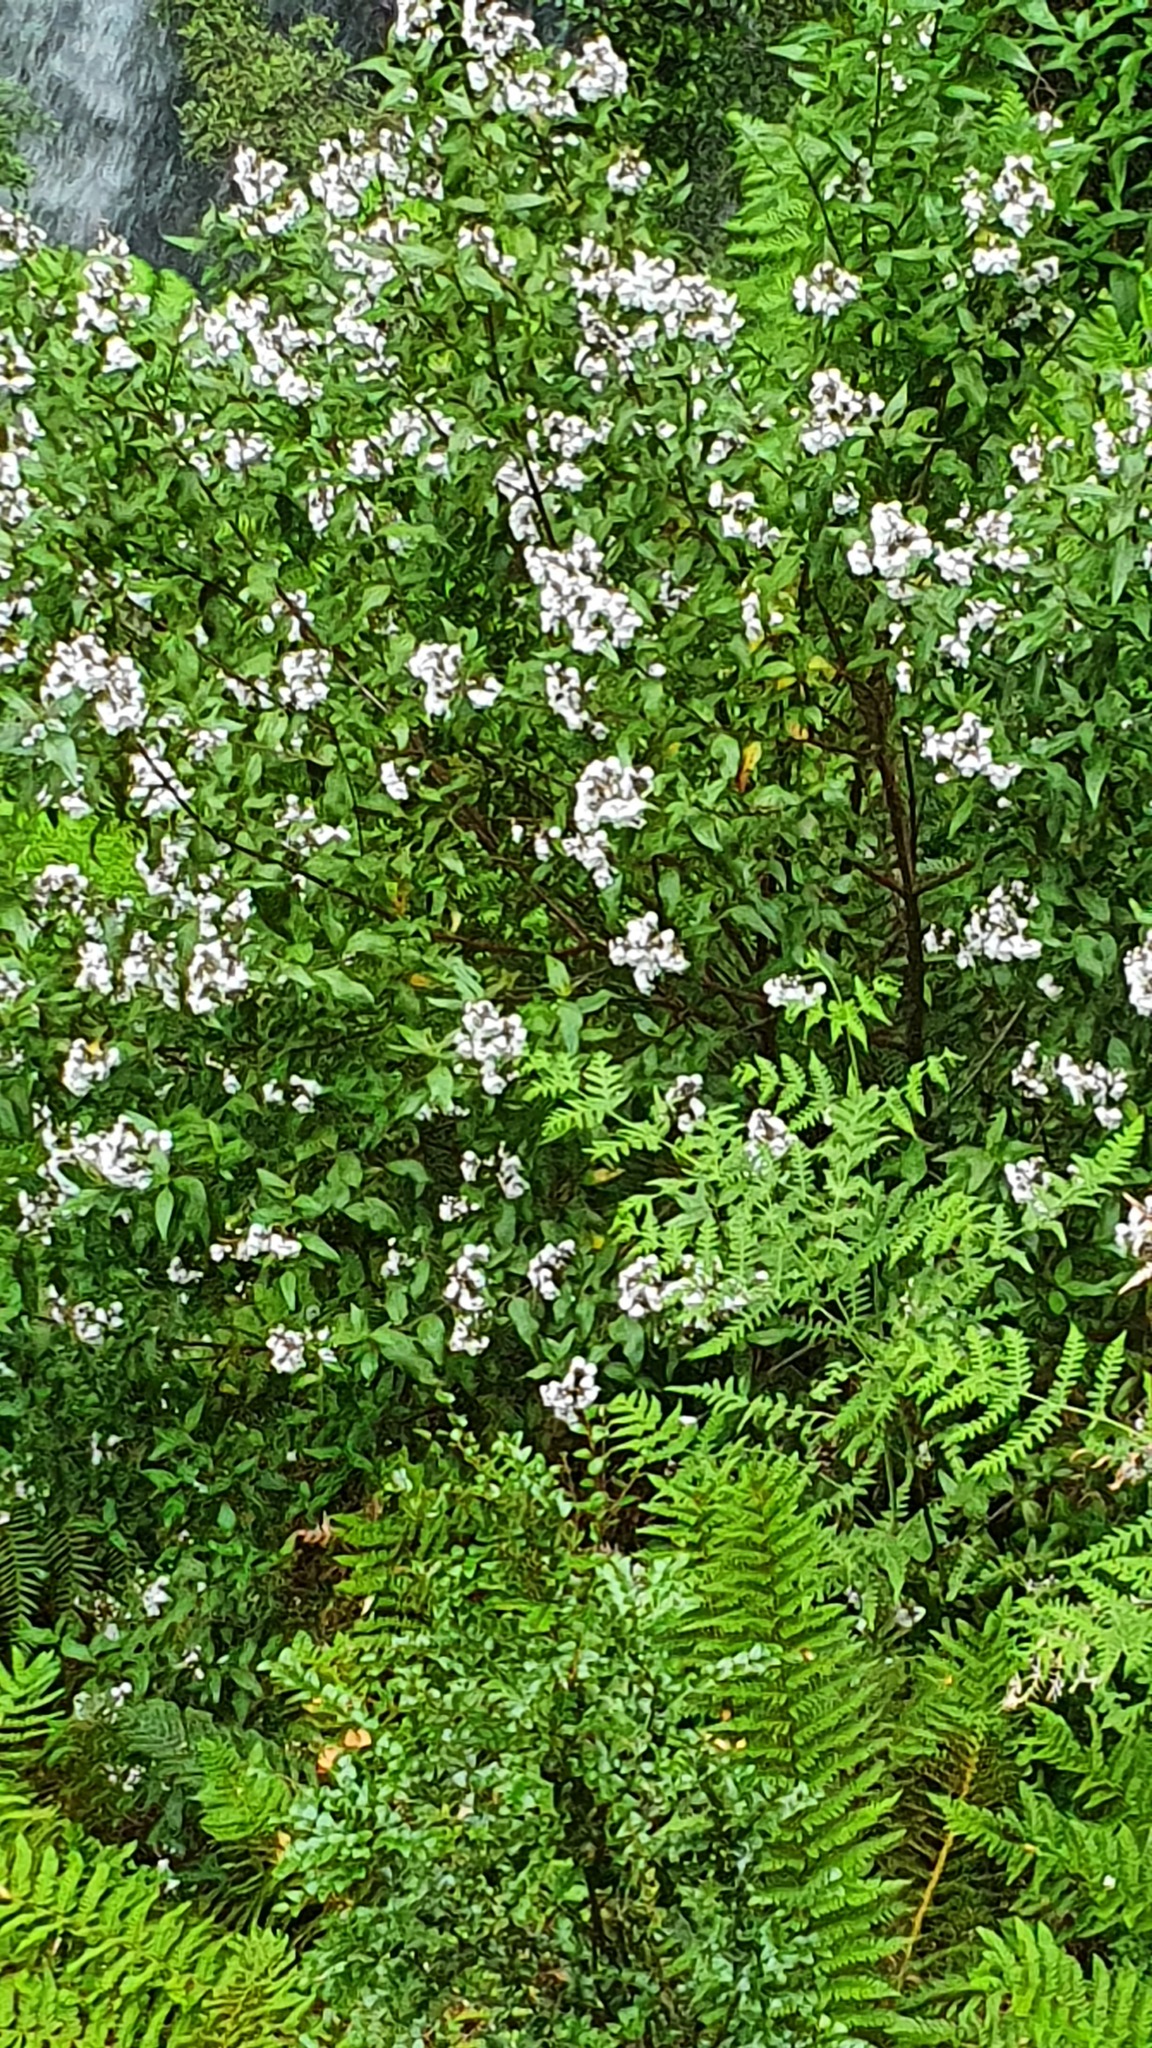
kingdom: Plantae
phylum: Tracheophyta
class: Magnoliopsida
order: Lamiales
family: Lamiaceae
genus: Prostanthera
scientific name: Prostanthera lasianthos
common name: Mountain-lilac
